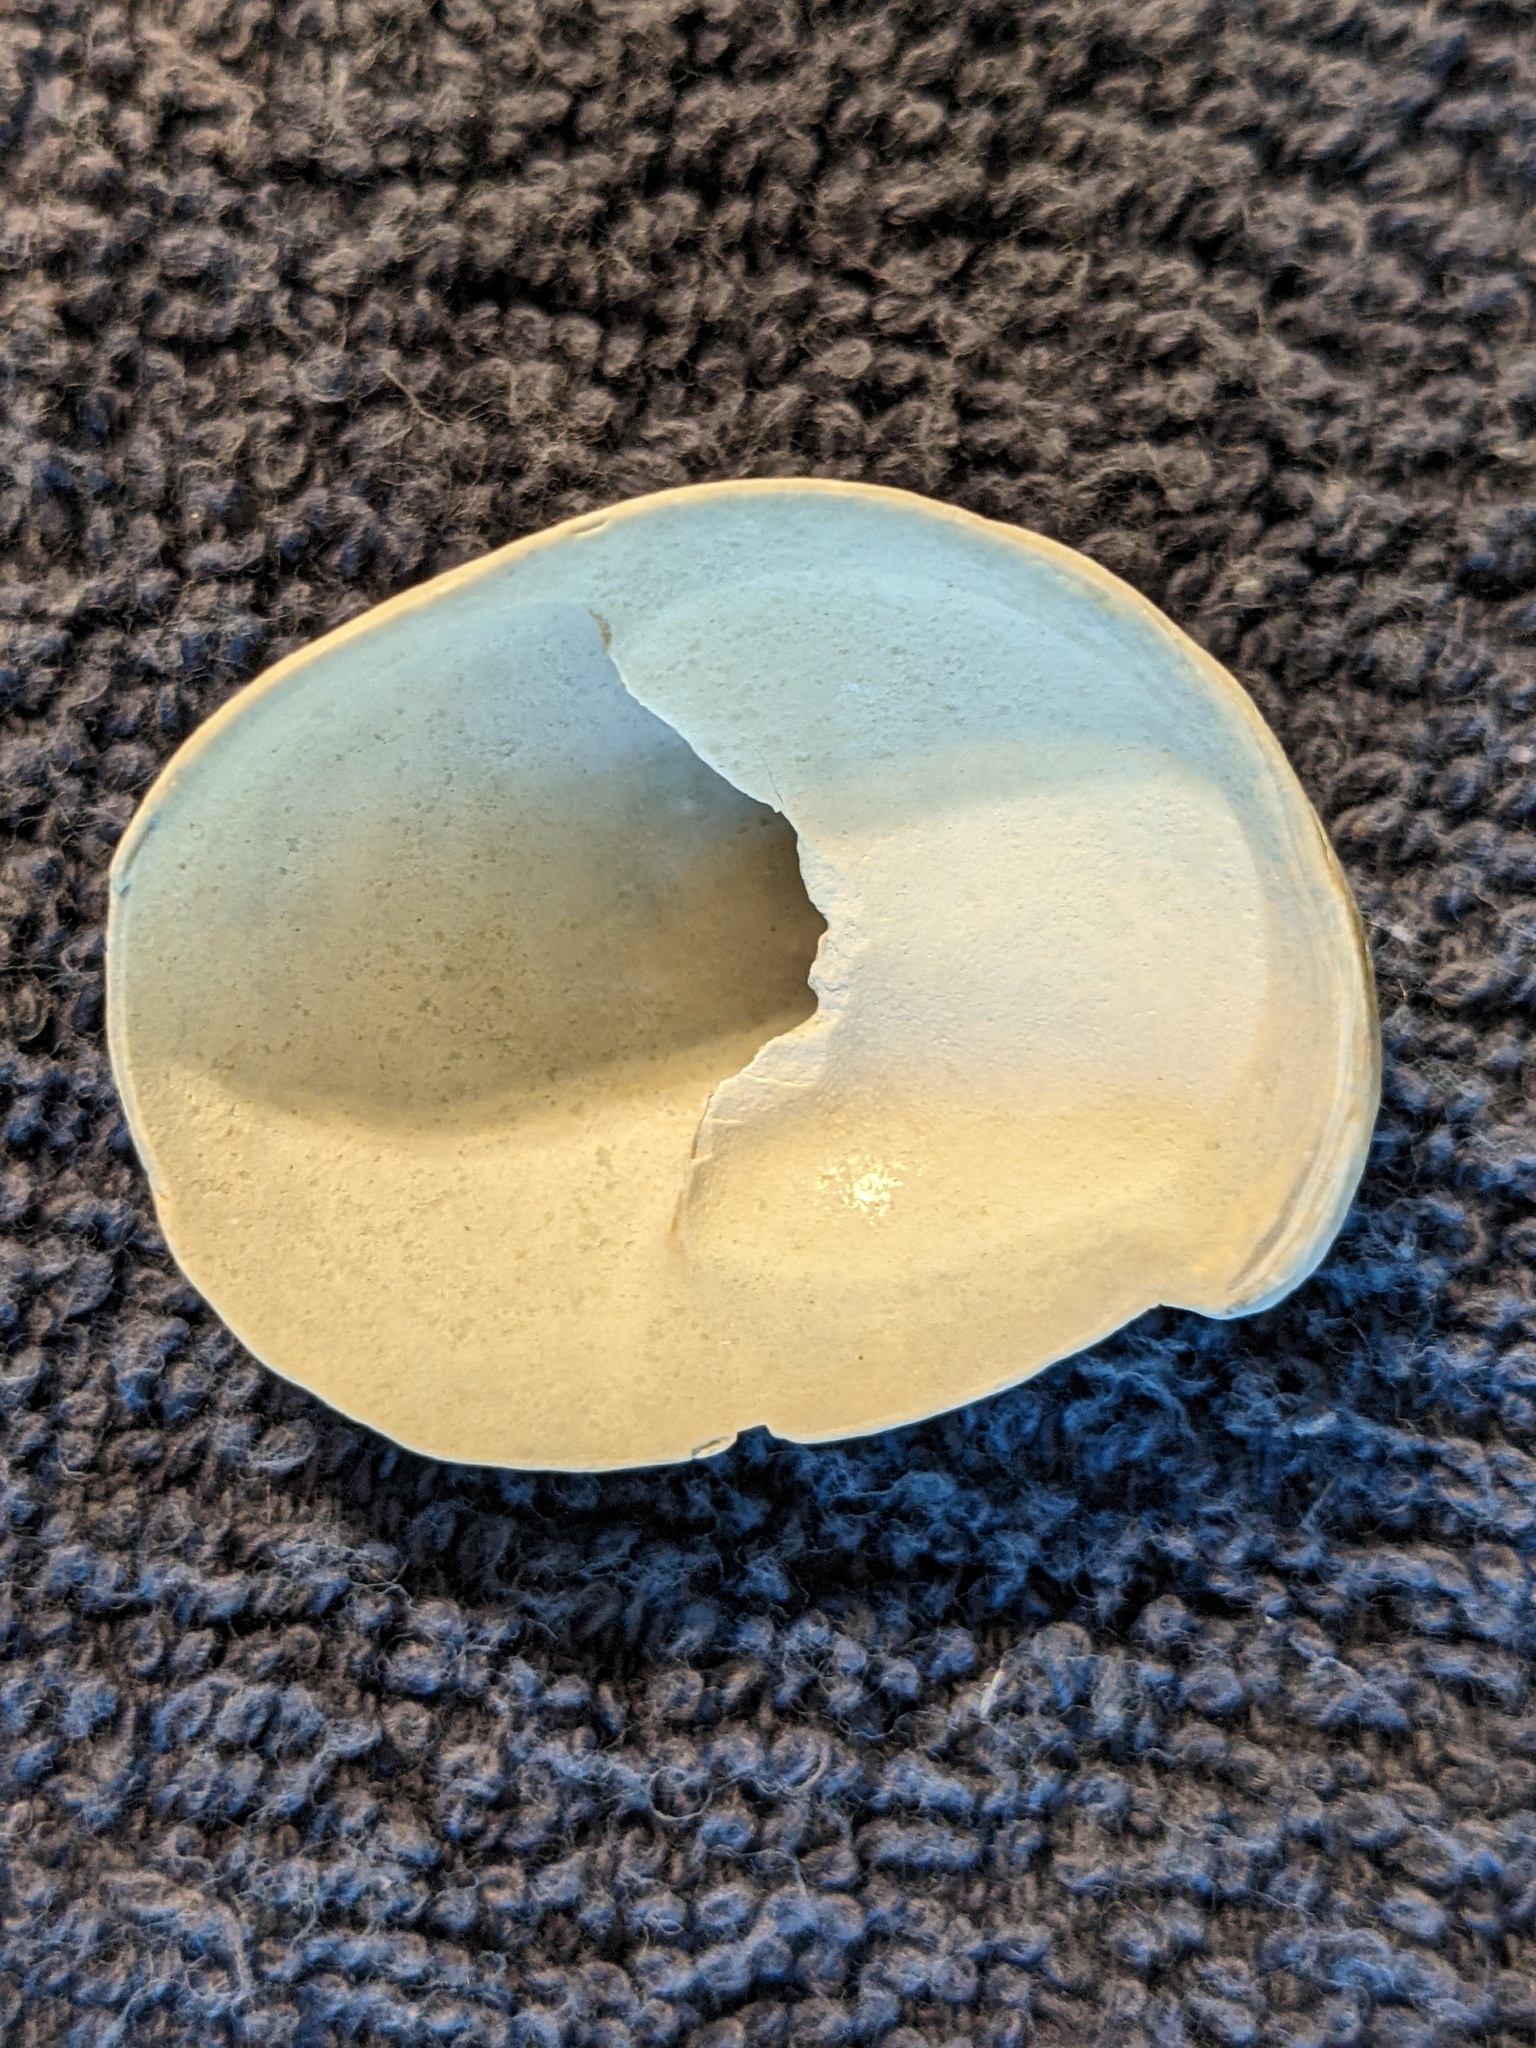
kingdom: Animalia
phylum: Mollusca
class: Gastropoda
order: Littorinimorpha
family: Calyptraeidae
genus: Crepidula
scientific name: Crepidula fornicata
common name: Slipper limpet
